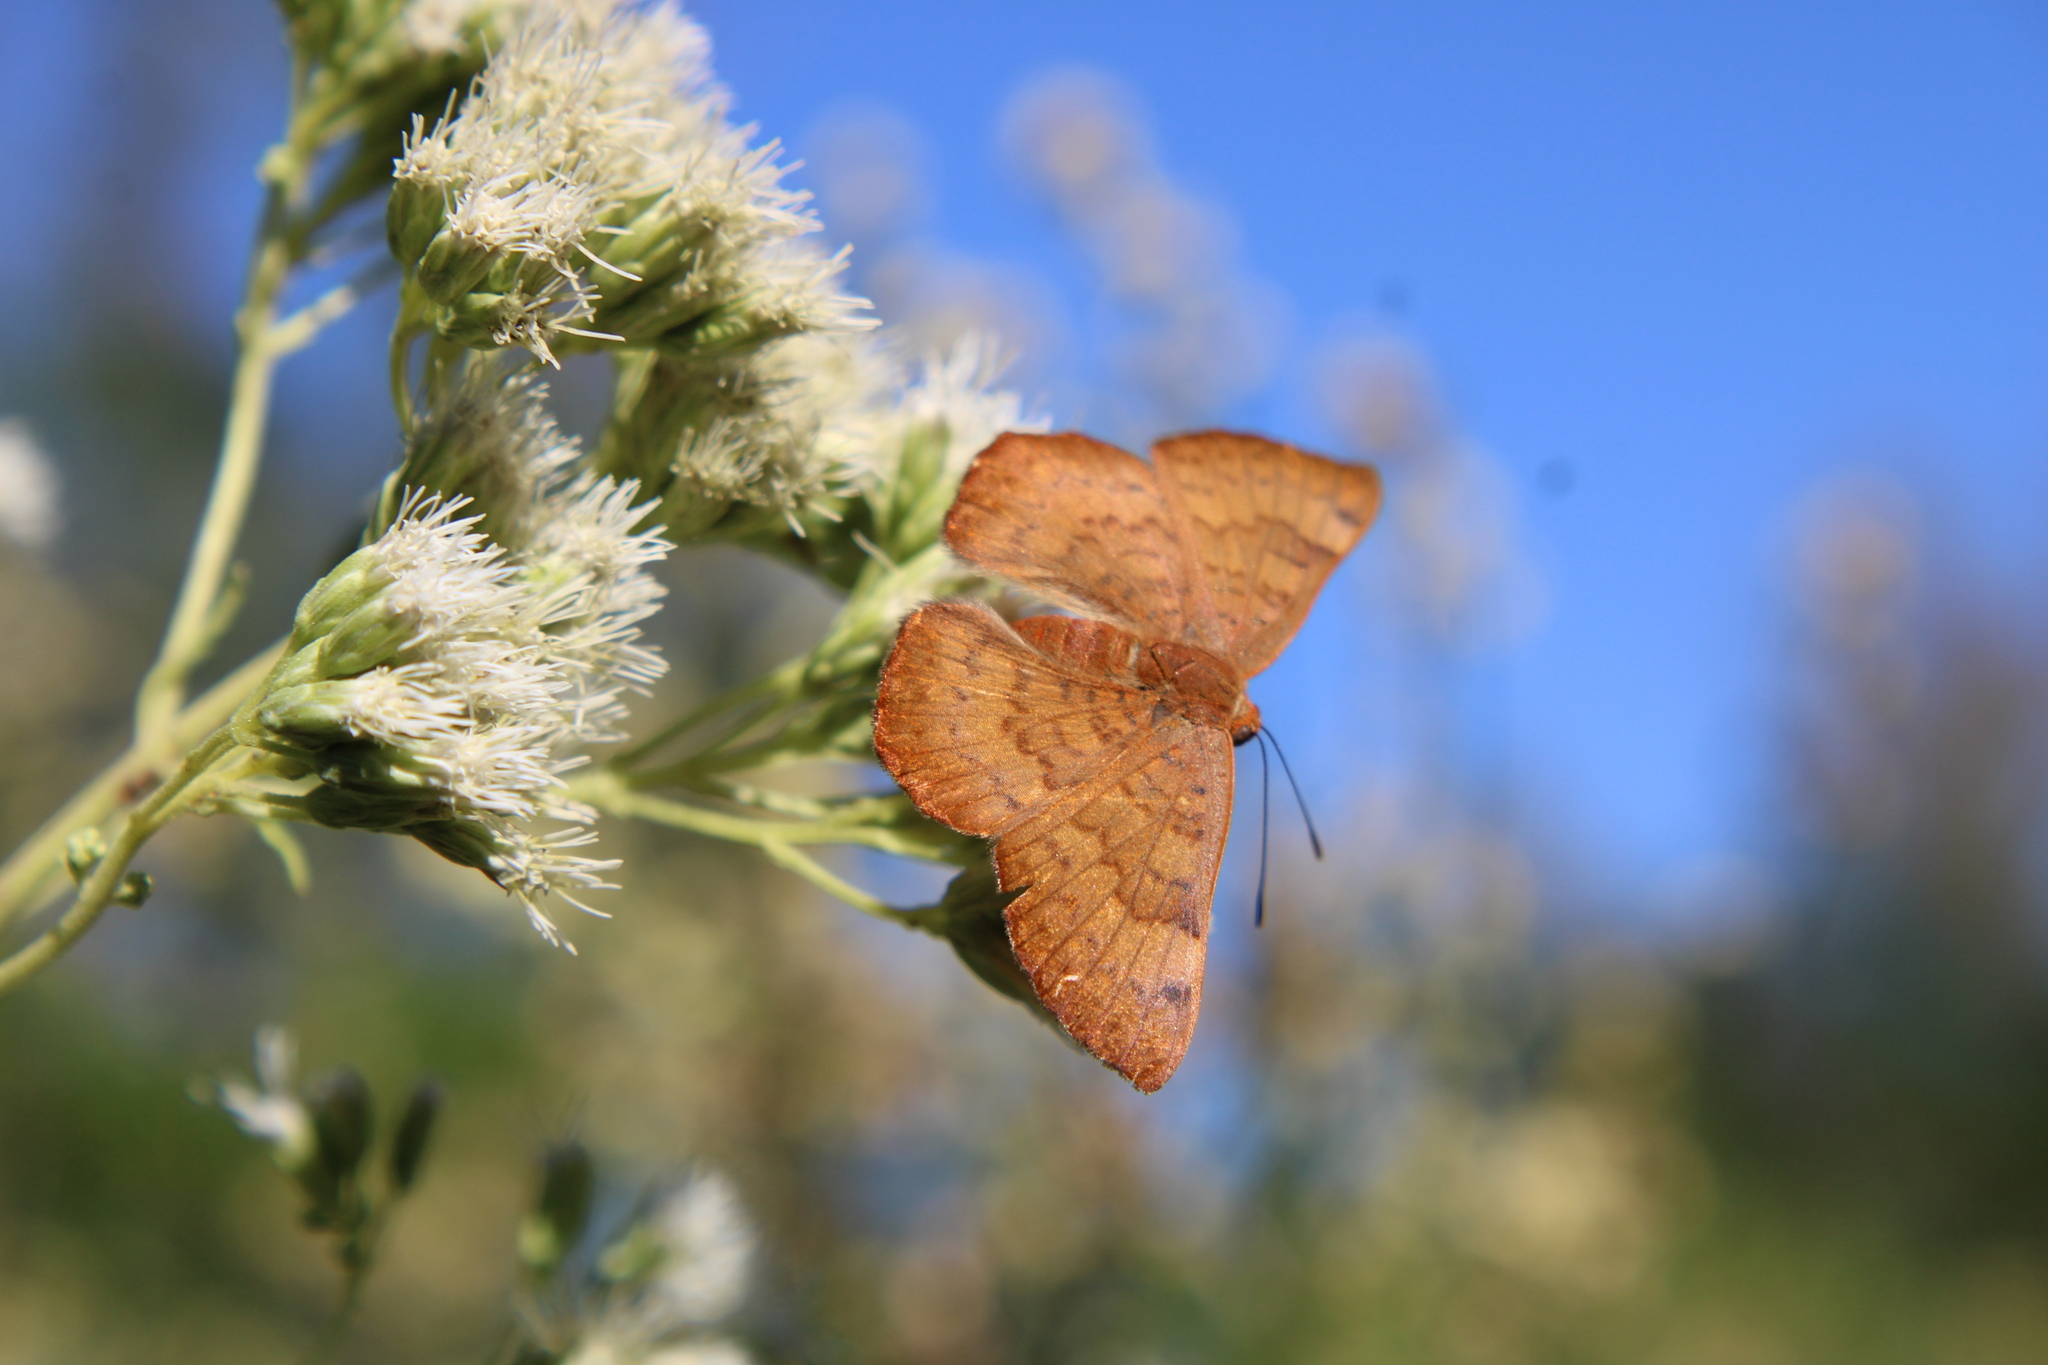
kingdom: Animalia
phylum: Arthropoda
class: Insecta
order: Lepidoptera
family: Lycaenidae
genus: Emesis
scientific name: Emesis russula
